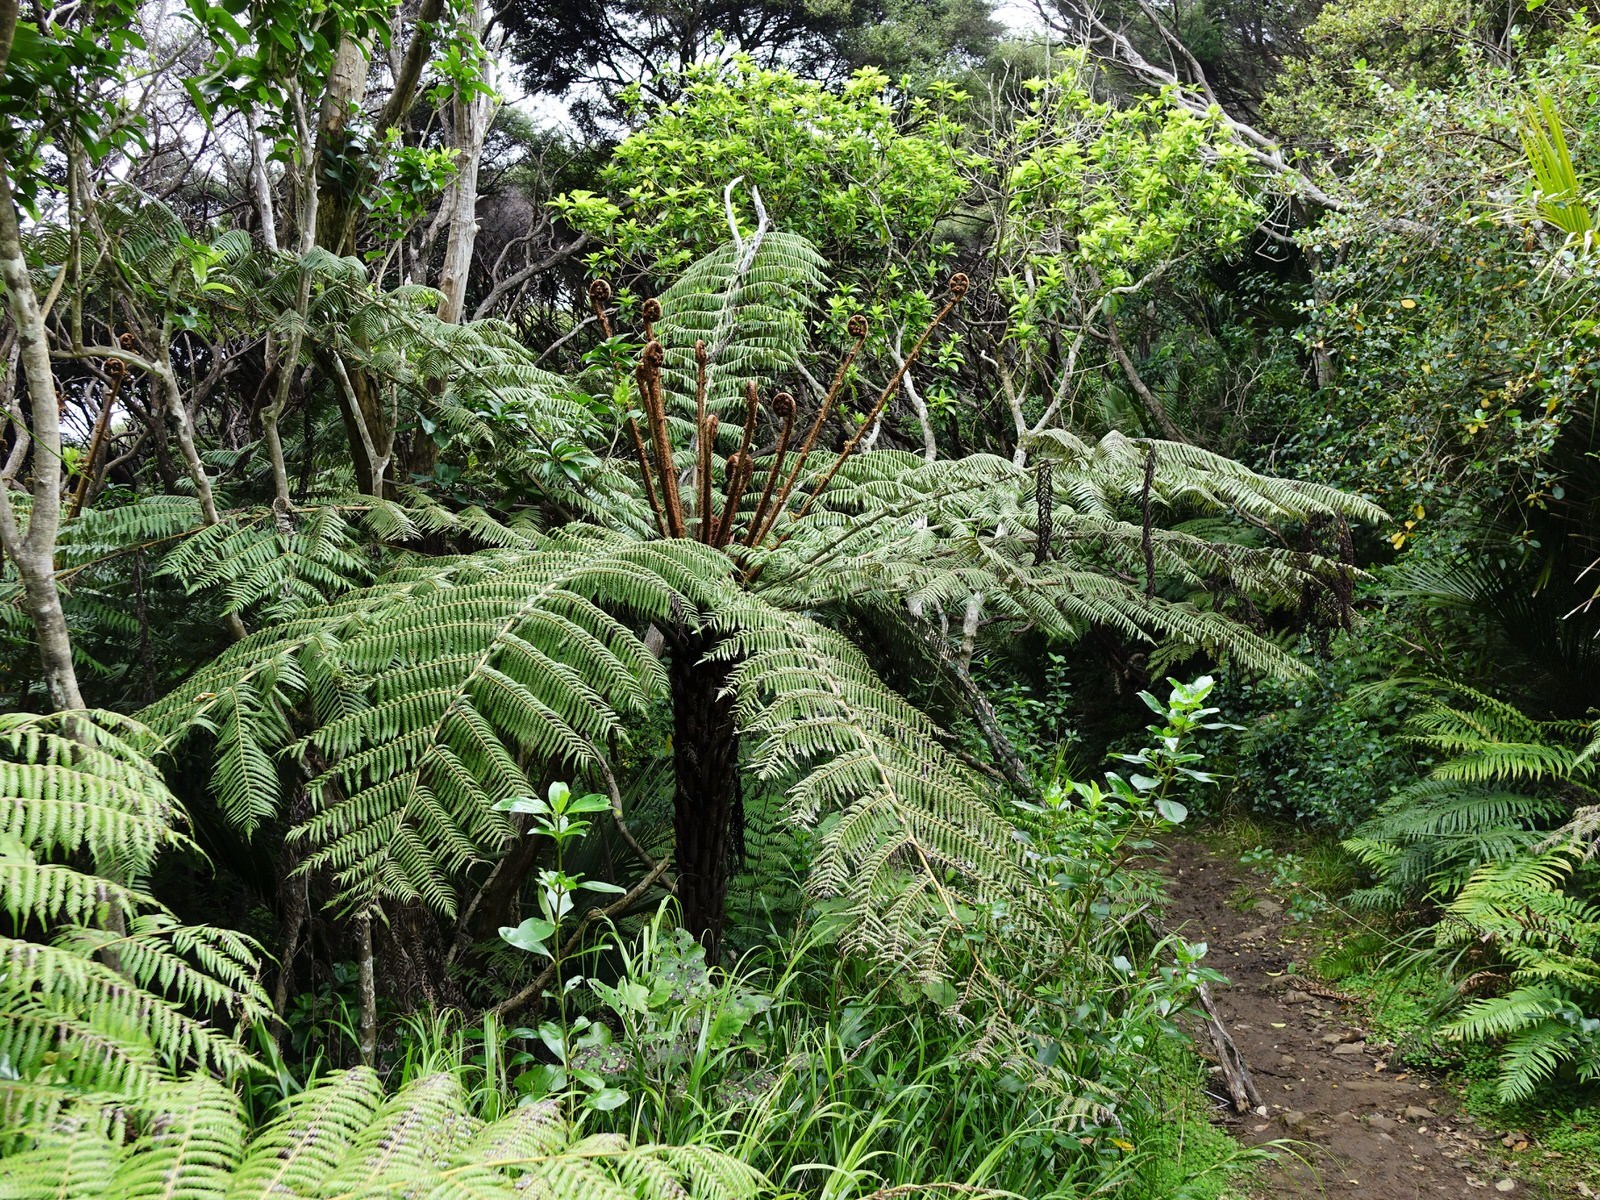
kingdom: Plantae
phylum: Tracheophyta
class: Polypodiopsida
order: Cyatheales
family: Cyatheaceae
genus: Alsophila
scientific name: Alsophila dealbata
